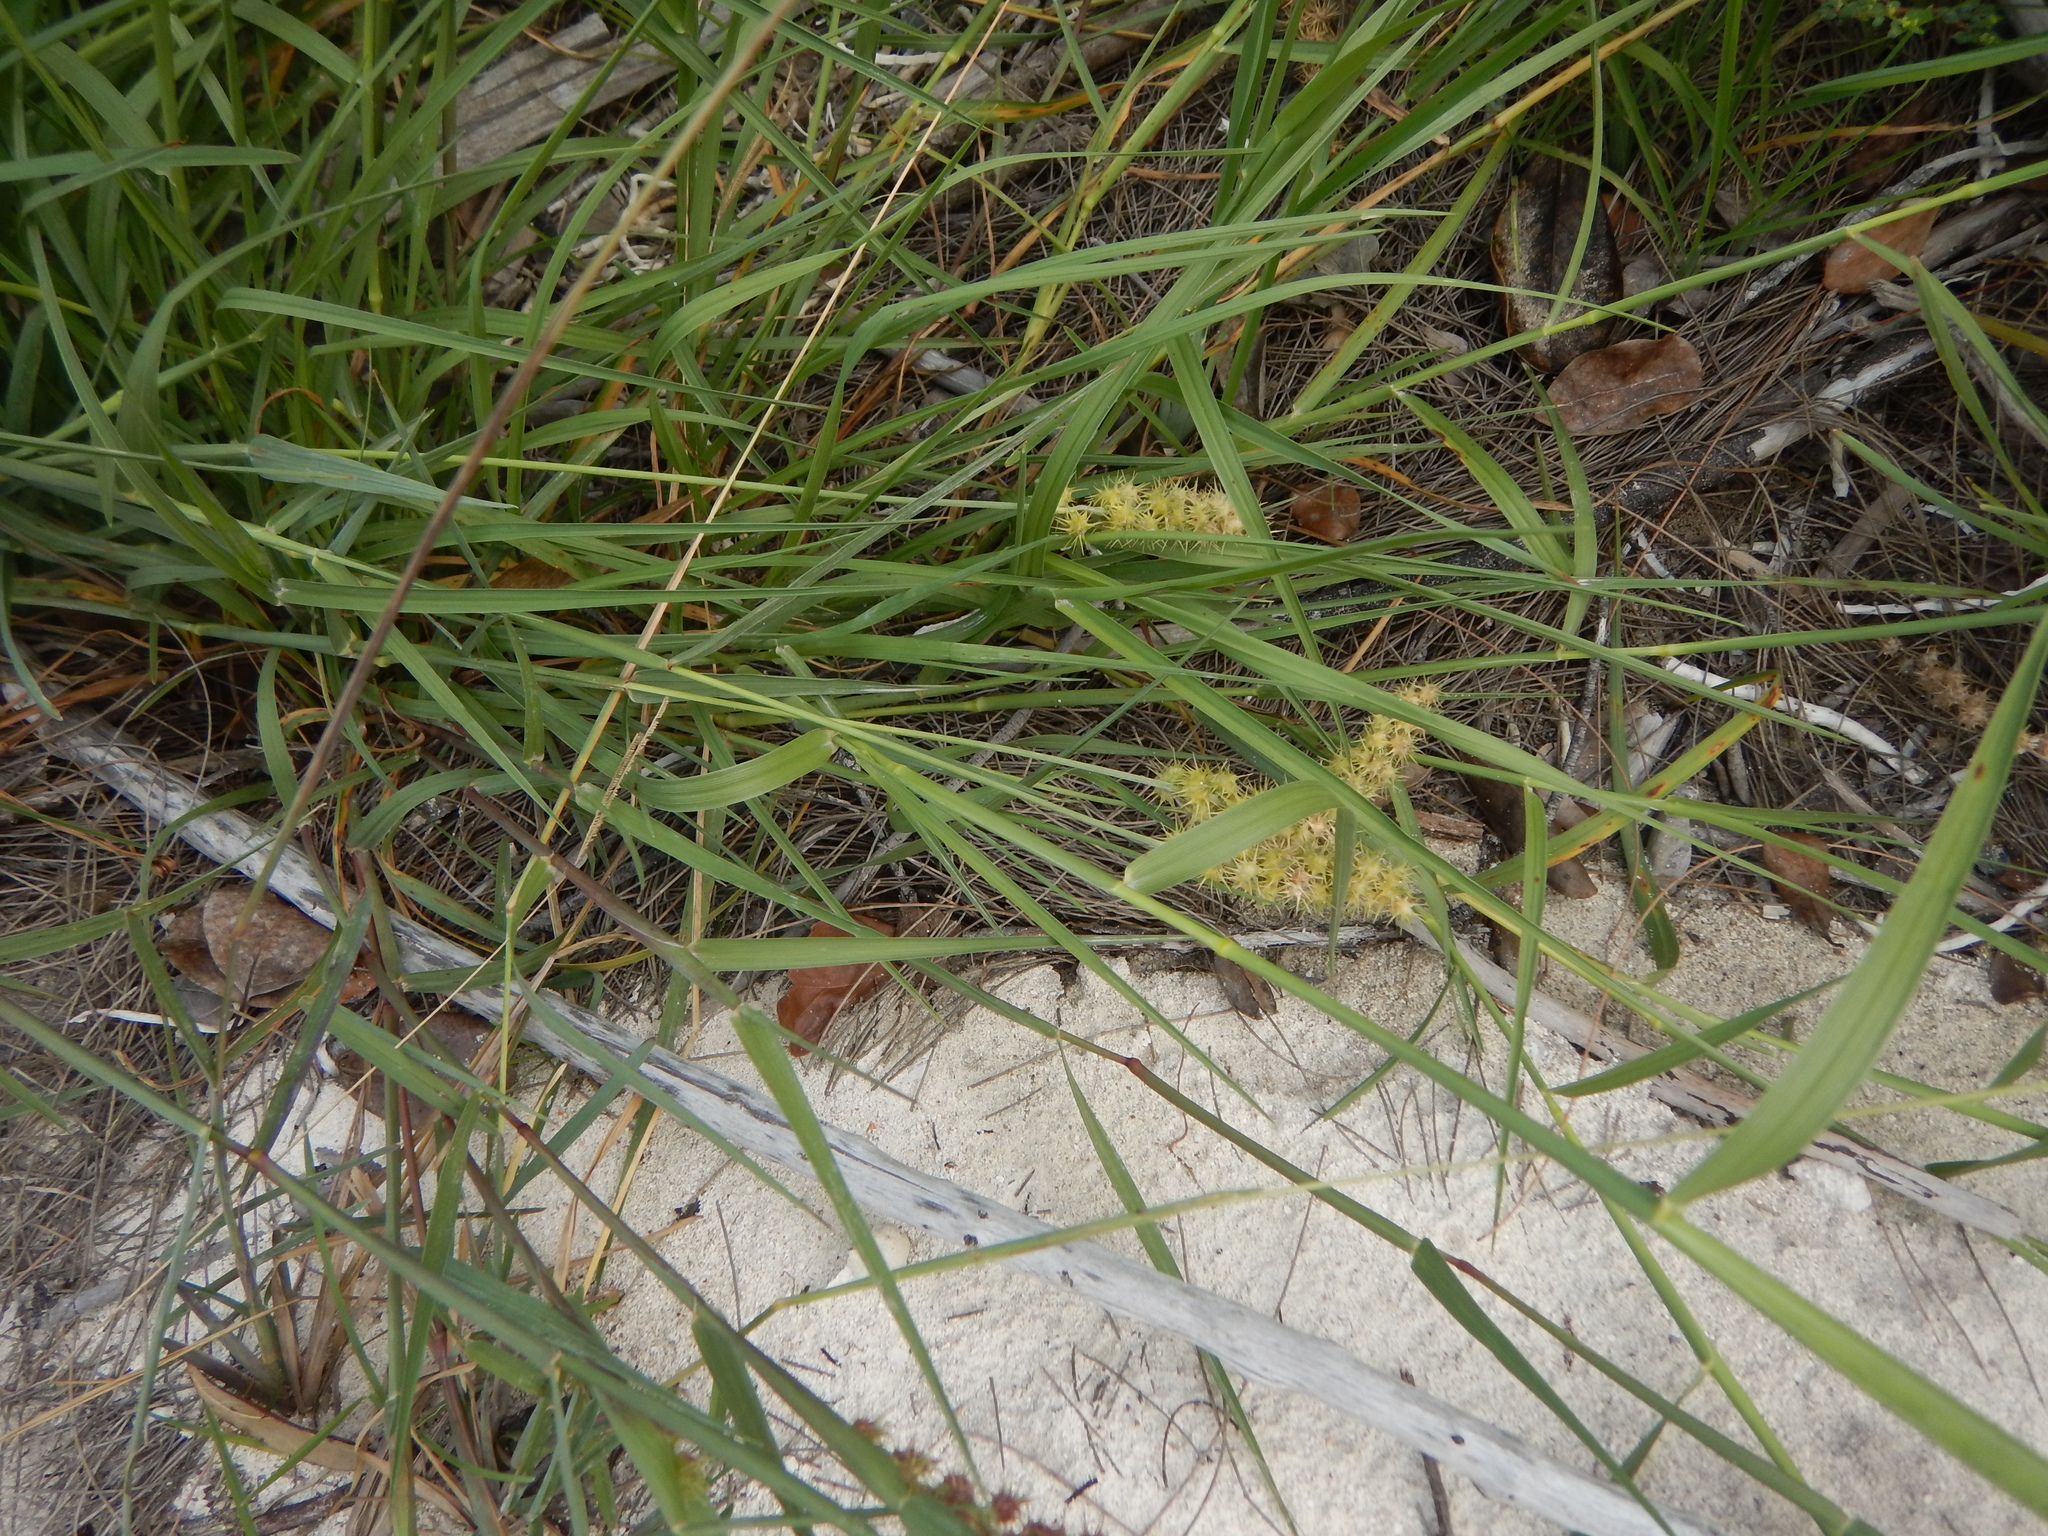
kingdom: Plantae
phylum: Tracheophyta
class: Liliopsida
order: Poales
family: Poaceae
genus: Cenchrus
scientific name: Cenchrus spinifex
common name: Coast sandbur
